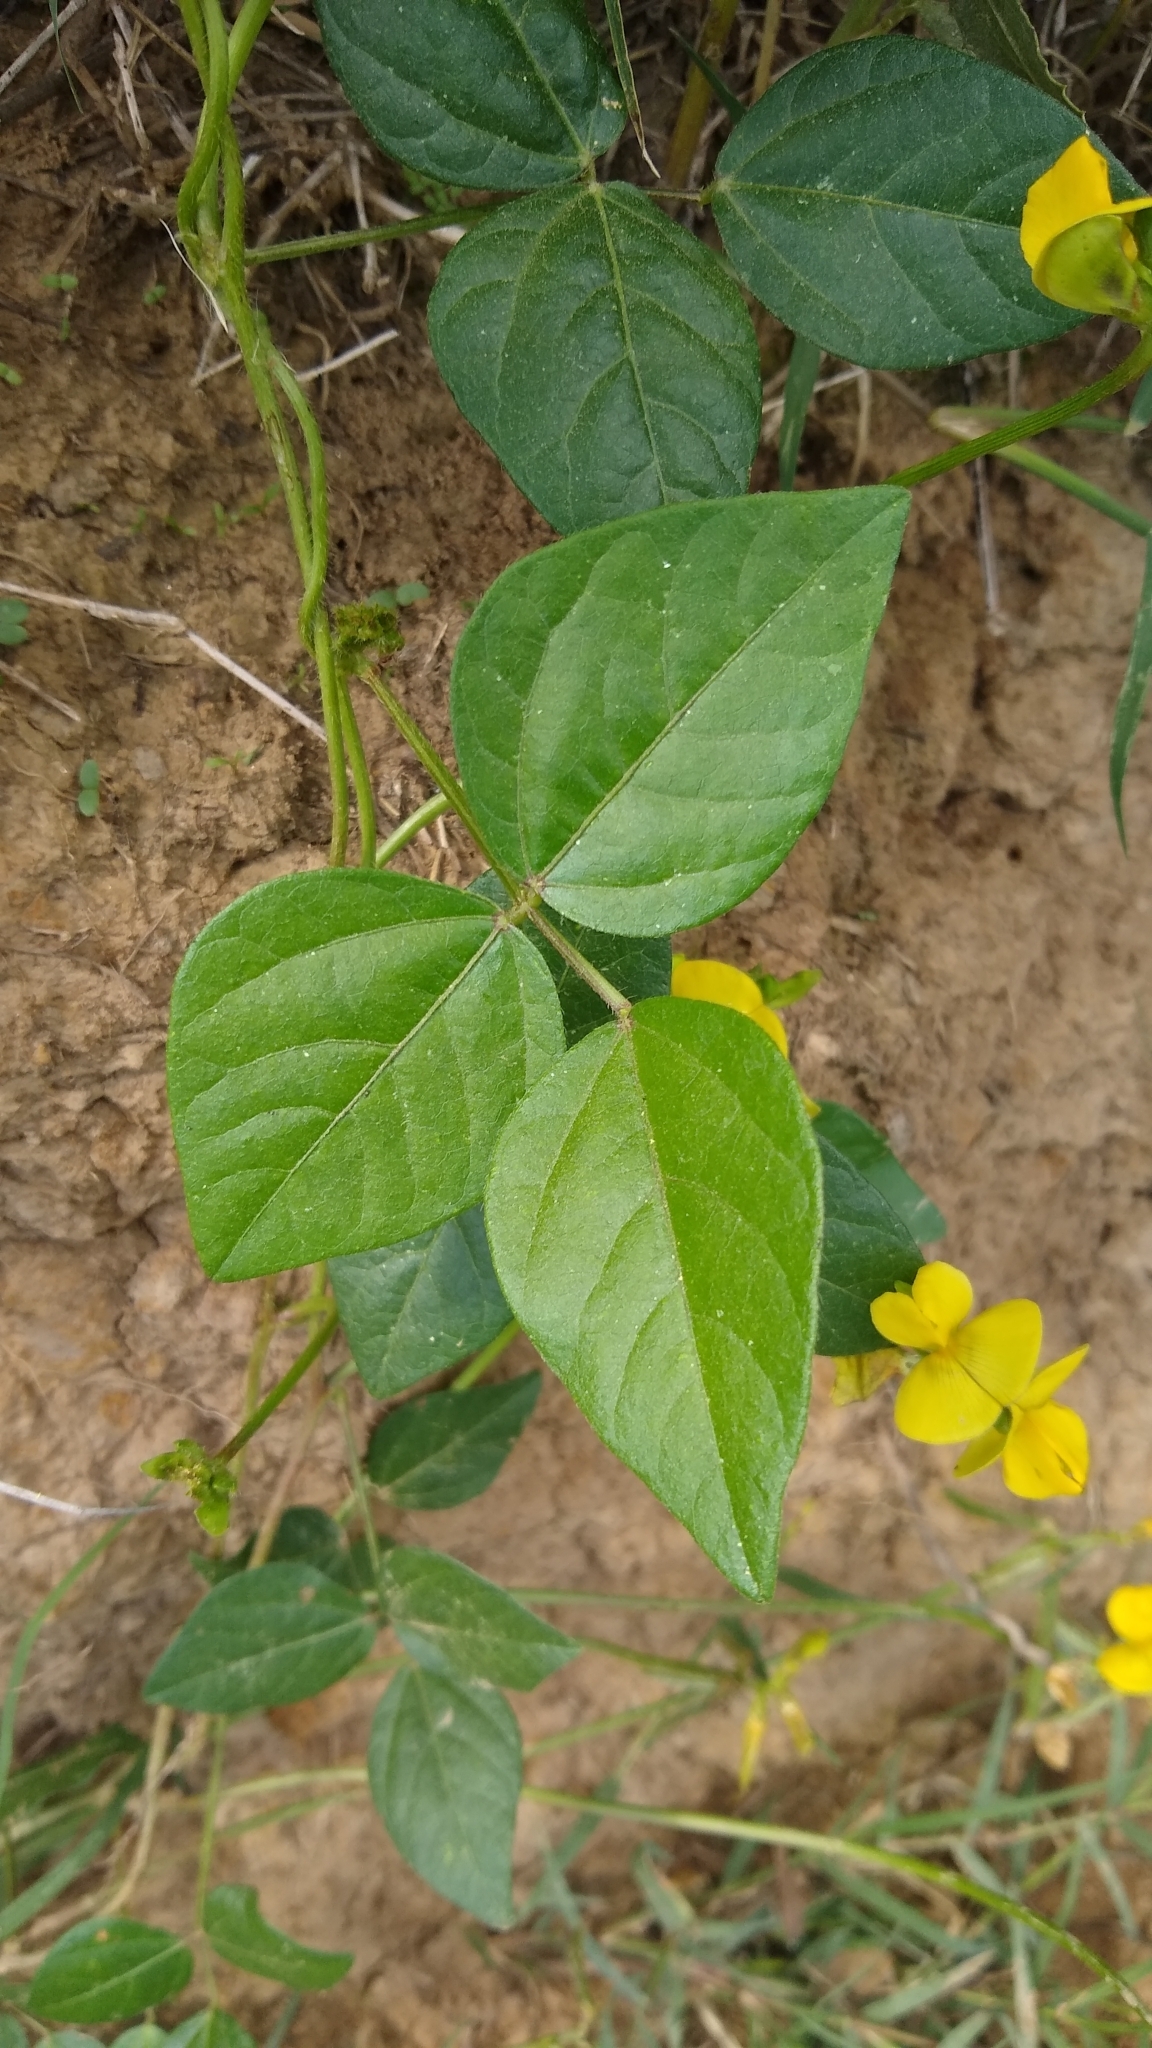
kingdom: Plantae
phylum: Tracheophyta
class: Magnoliopsida
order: Fabales
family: Fabaceae
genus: Vigna
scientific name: Vigna luteola
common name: Hairypod cowpea
